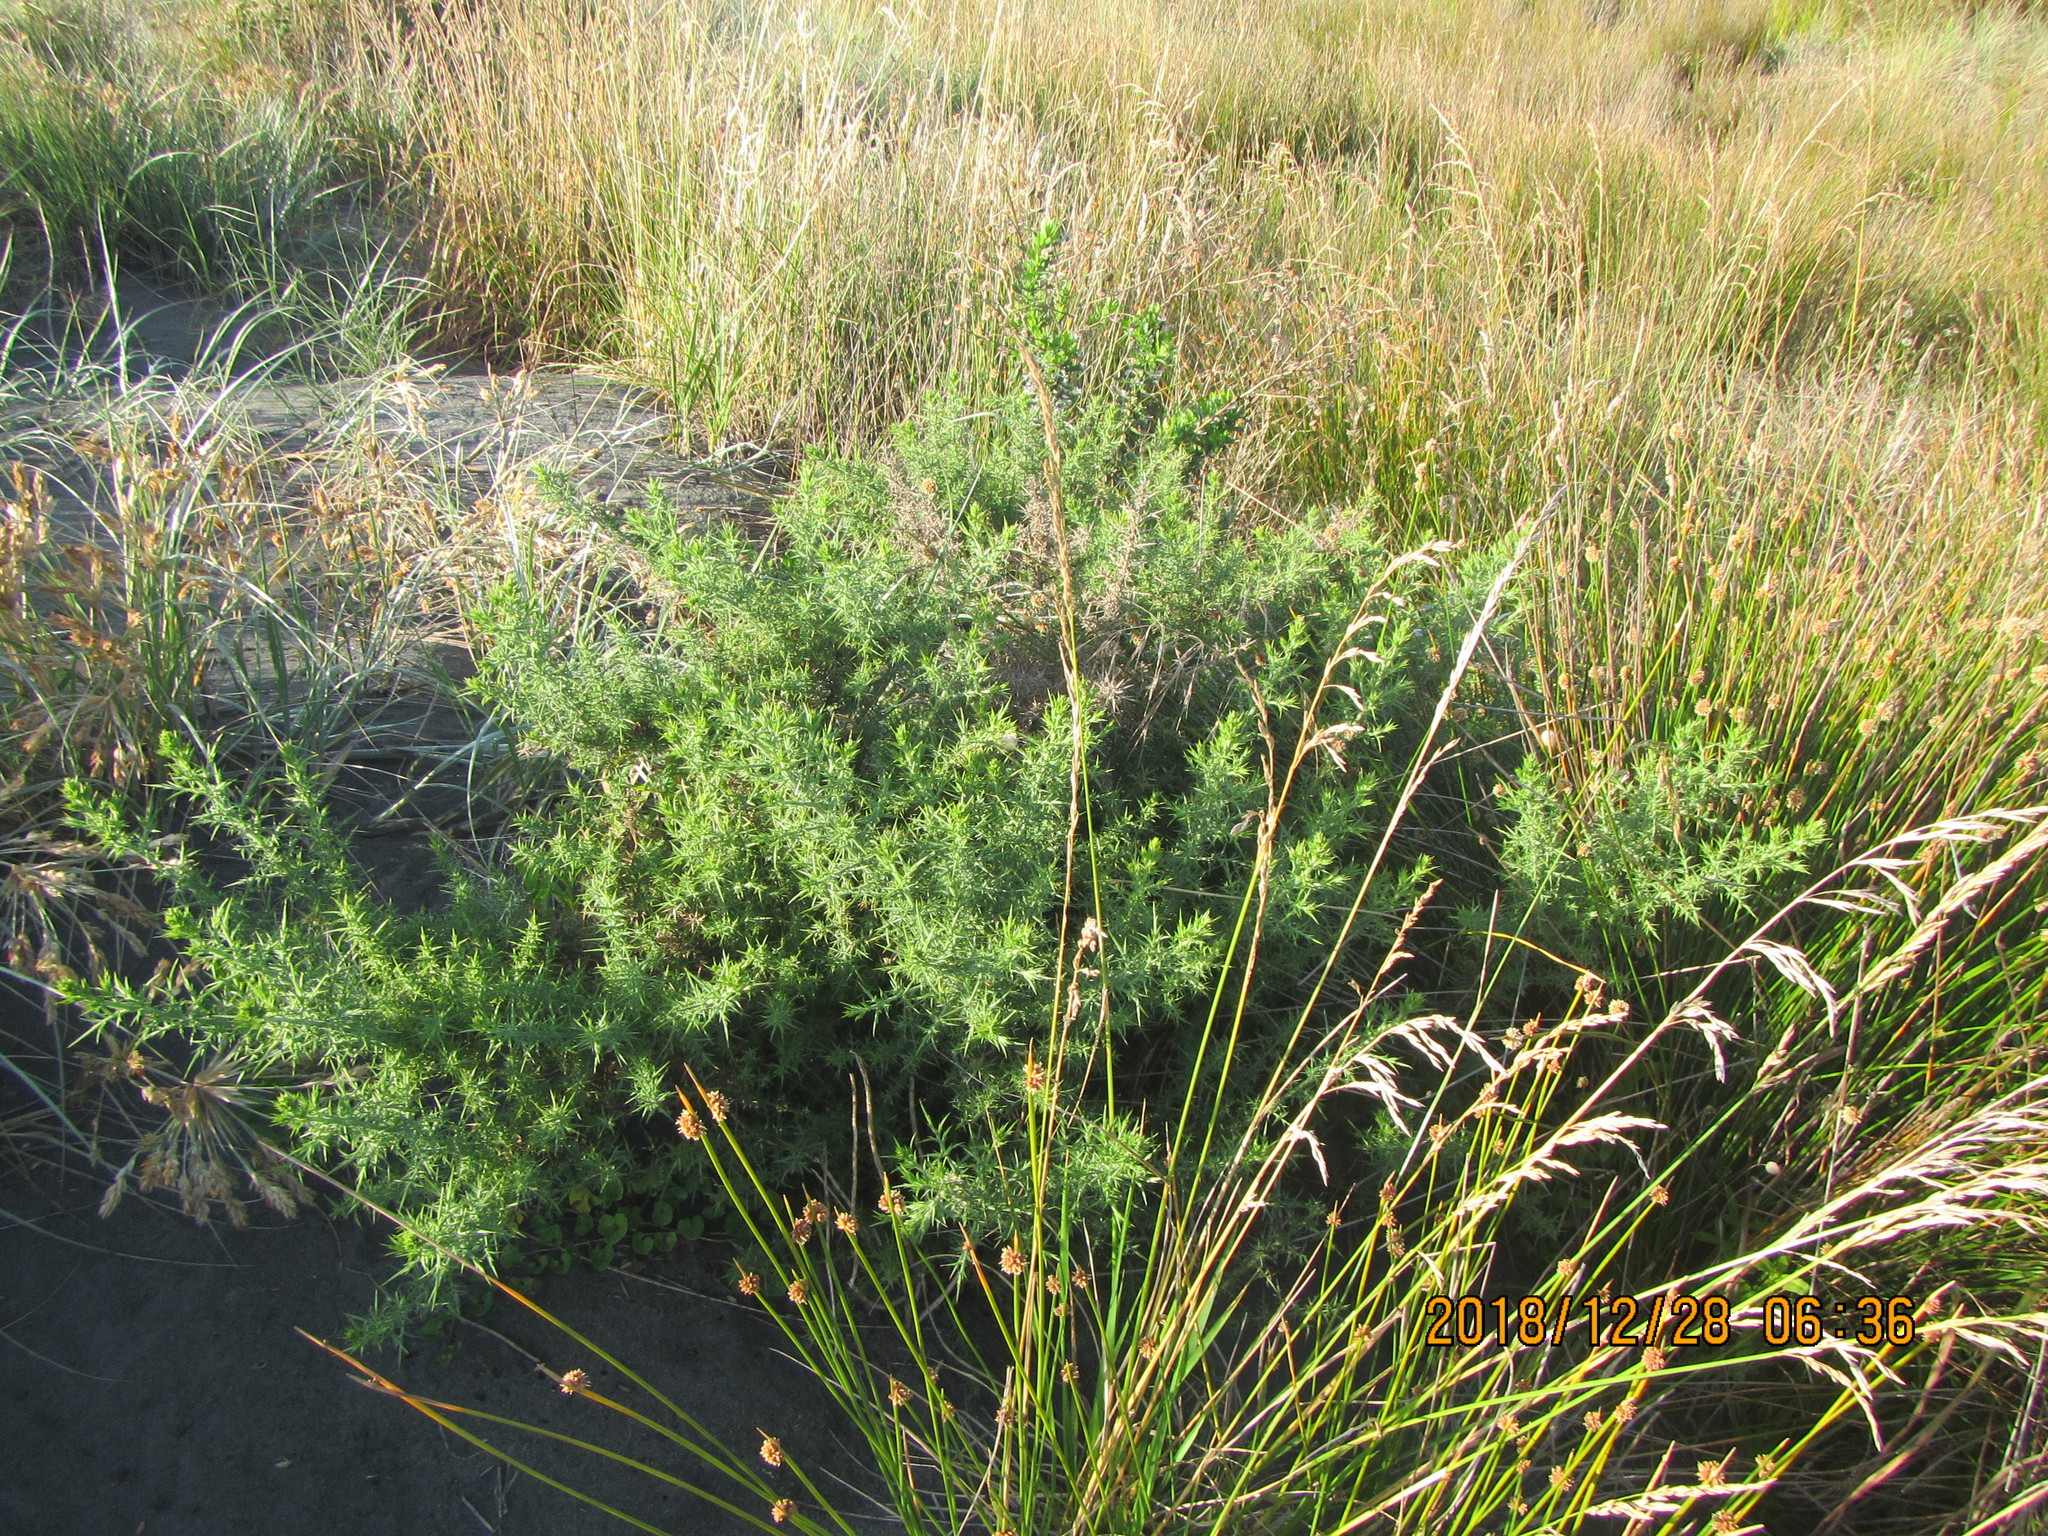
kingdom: Plantae
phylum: Tracheophyta
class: Magnoliopsida
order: Fabales
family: Fabaceae
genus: Ulex
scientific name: Ulex europaeus
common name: Common gorse
